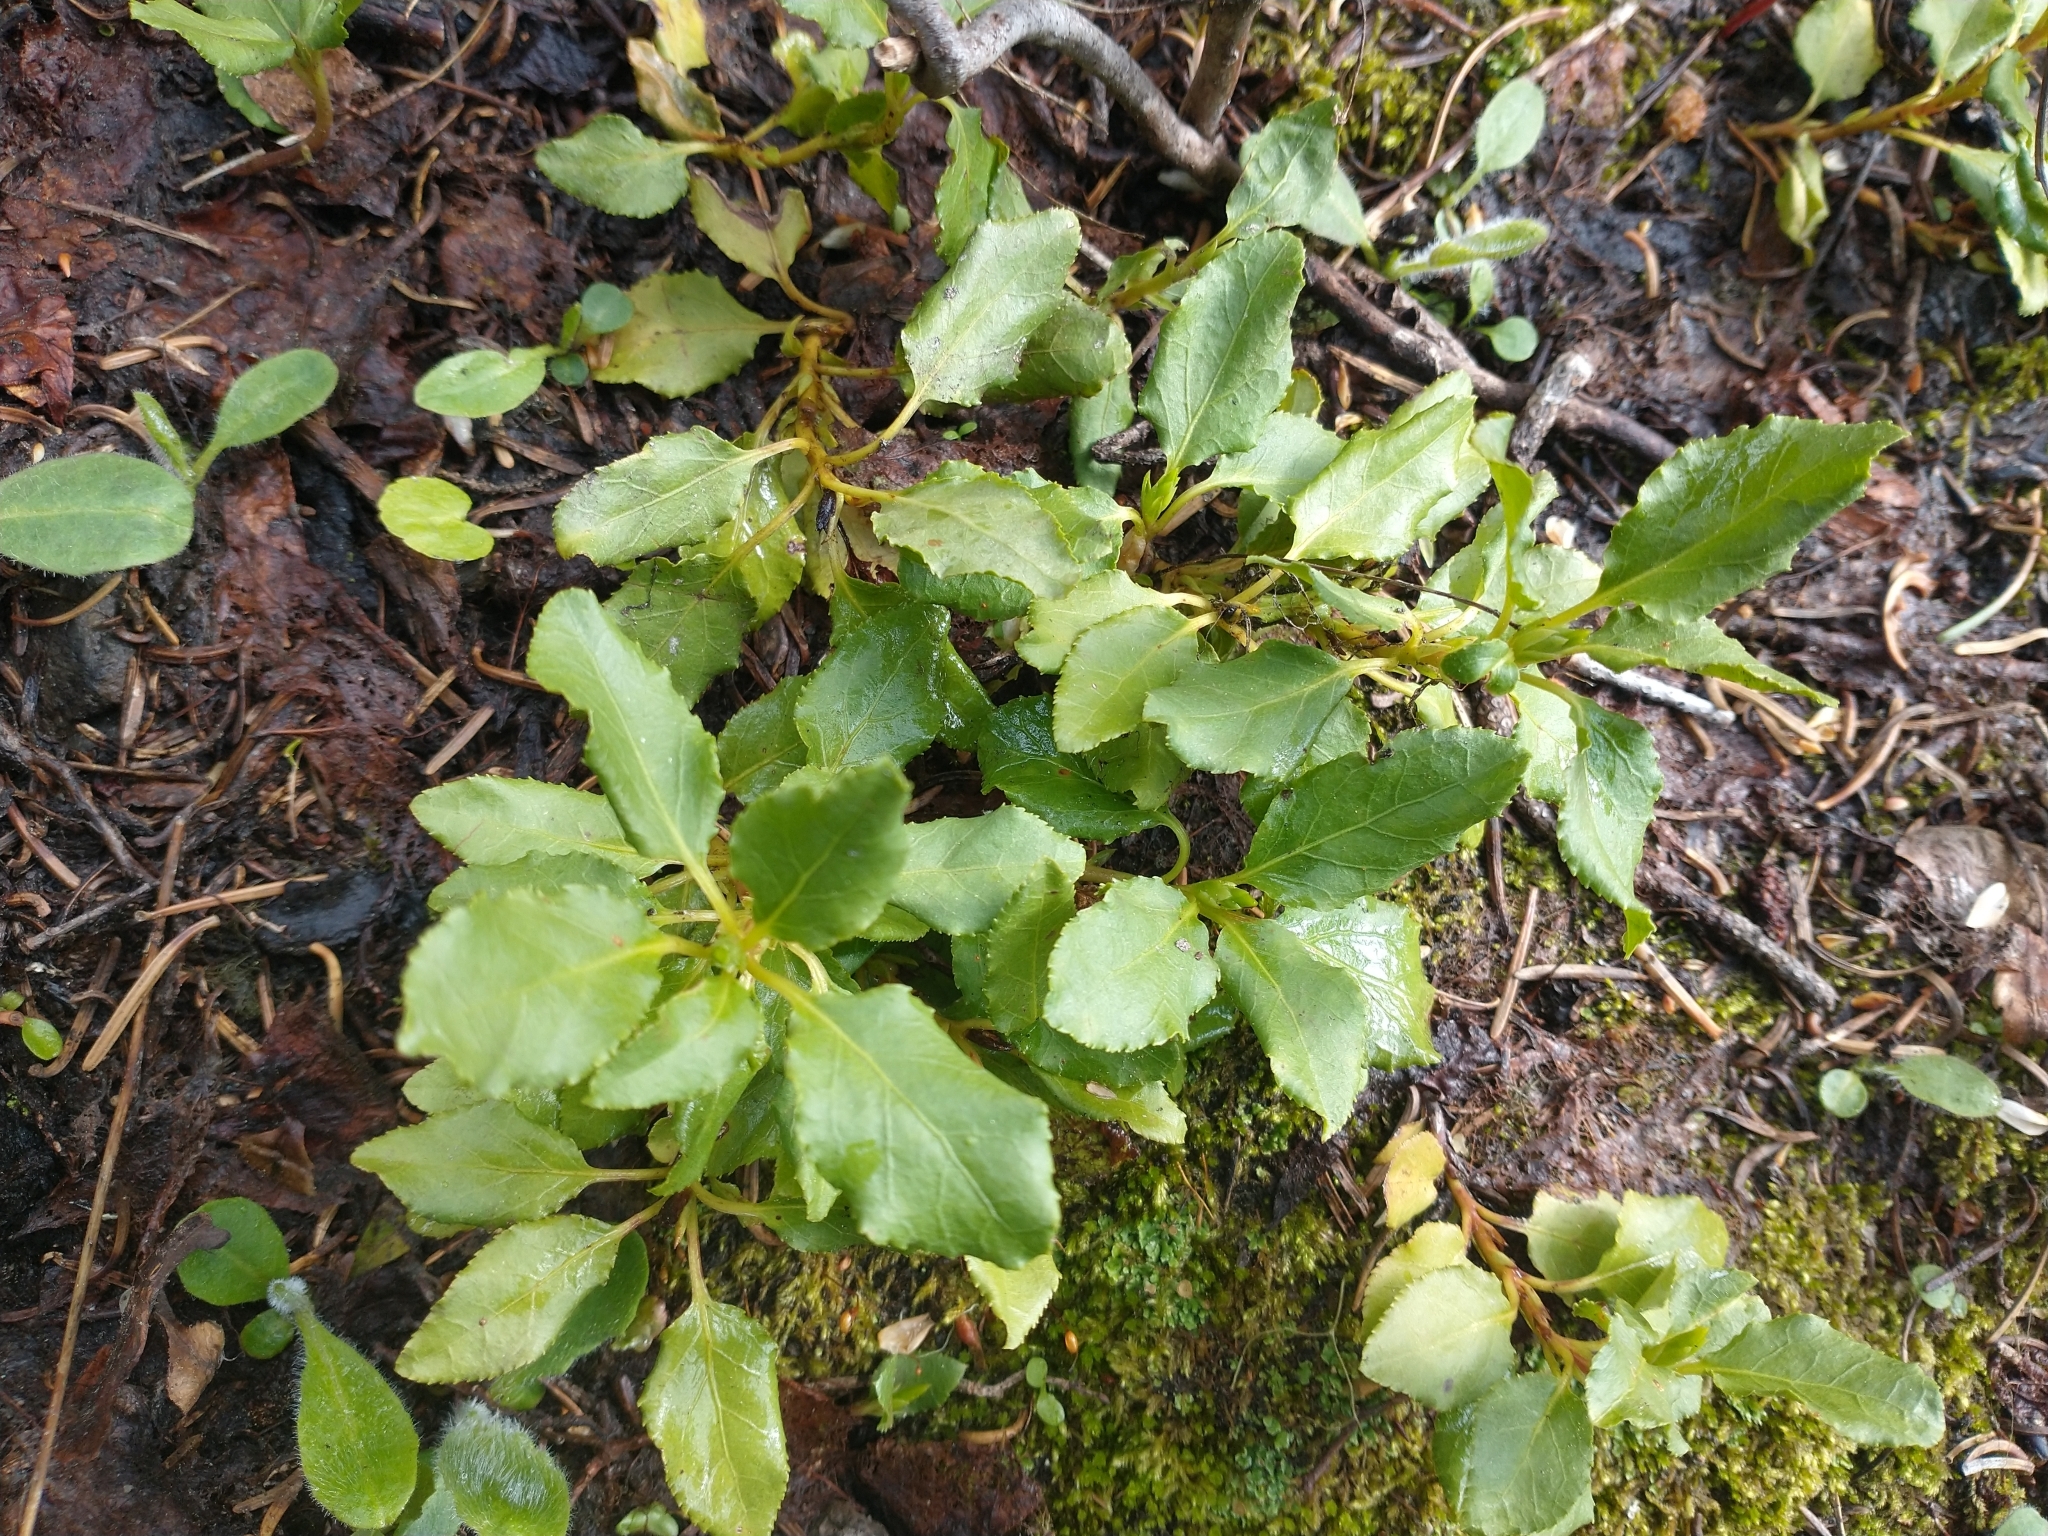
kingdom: Plantae
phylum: Tracheophyta
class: Magnoliopsida
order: Ericales
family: Ericaceae
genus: Orthilia
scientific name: Orthilia secunda
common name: One-sided orthilia
